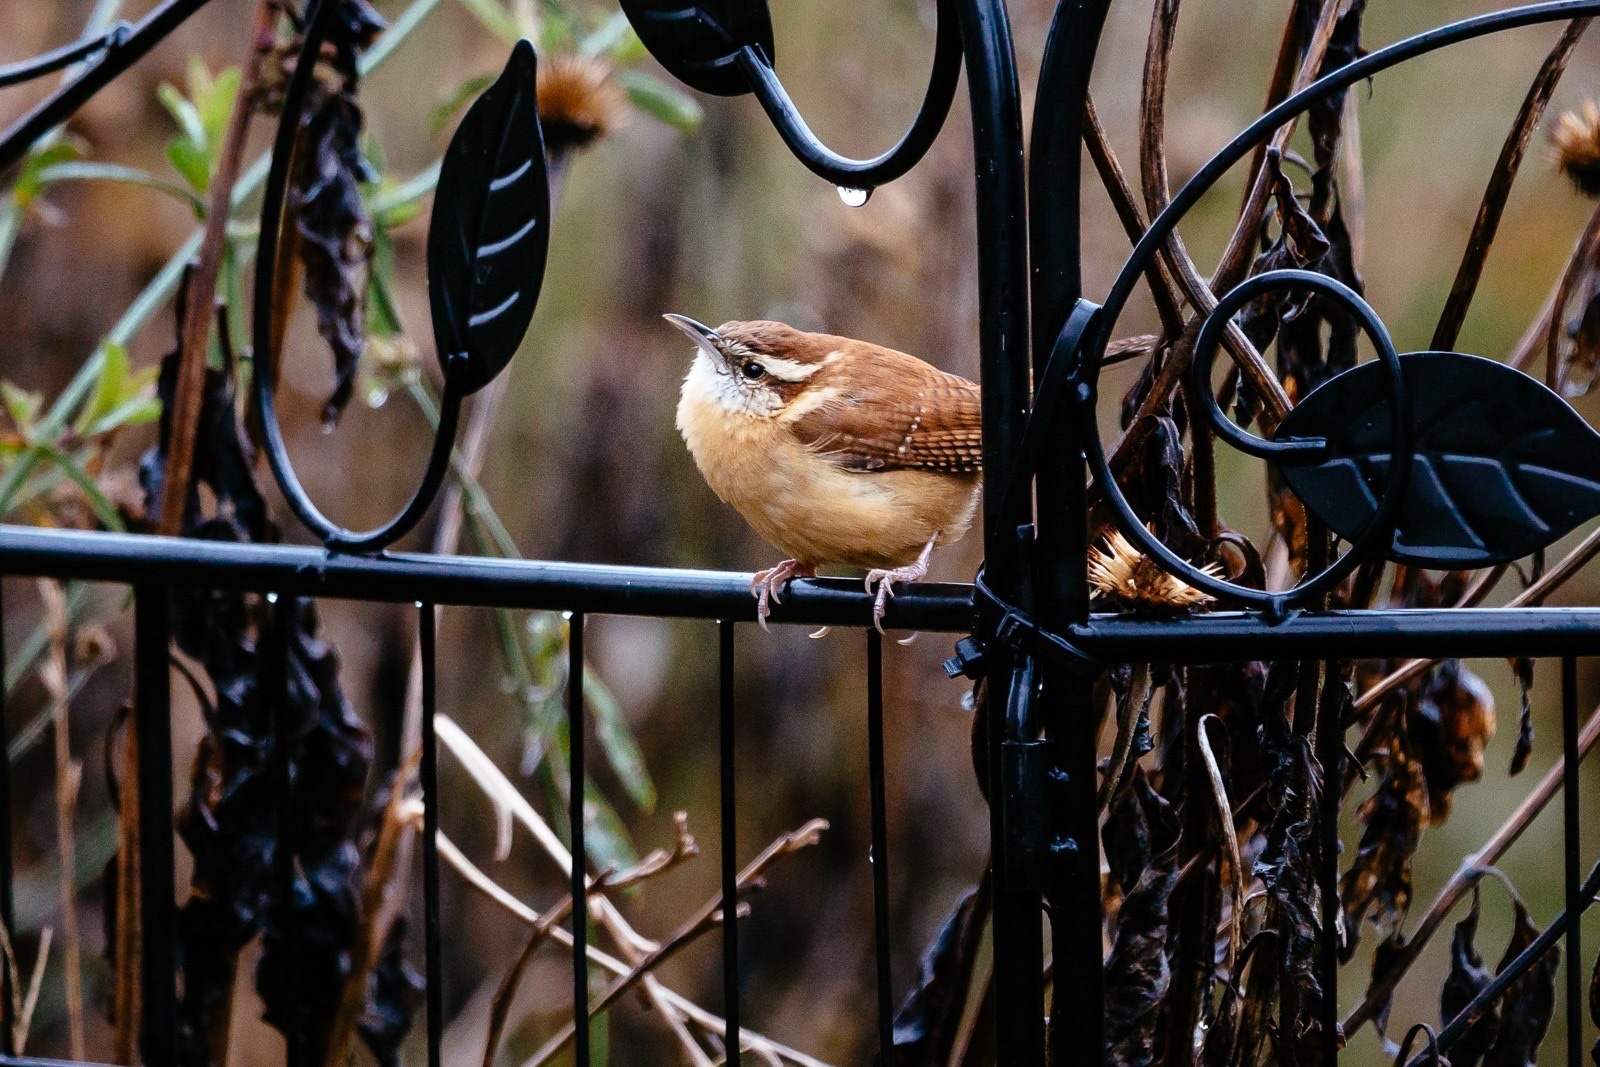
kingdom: Animalia
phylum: Chordata
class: Aves
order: Passeriformes
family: Troglodytidae
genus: Thryothorus
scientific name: Thryothorus ludovicianus
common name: Carolina wren
